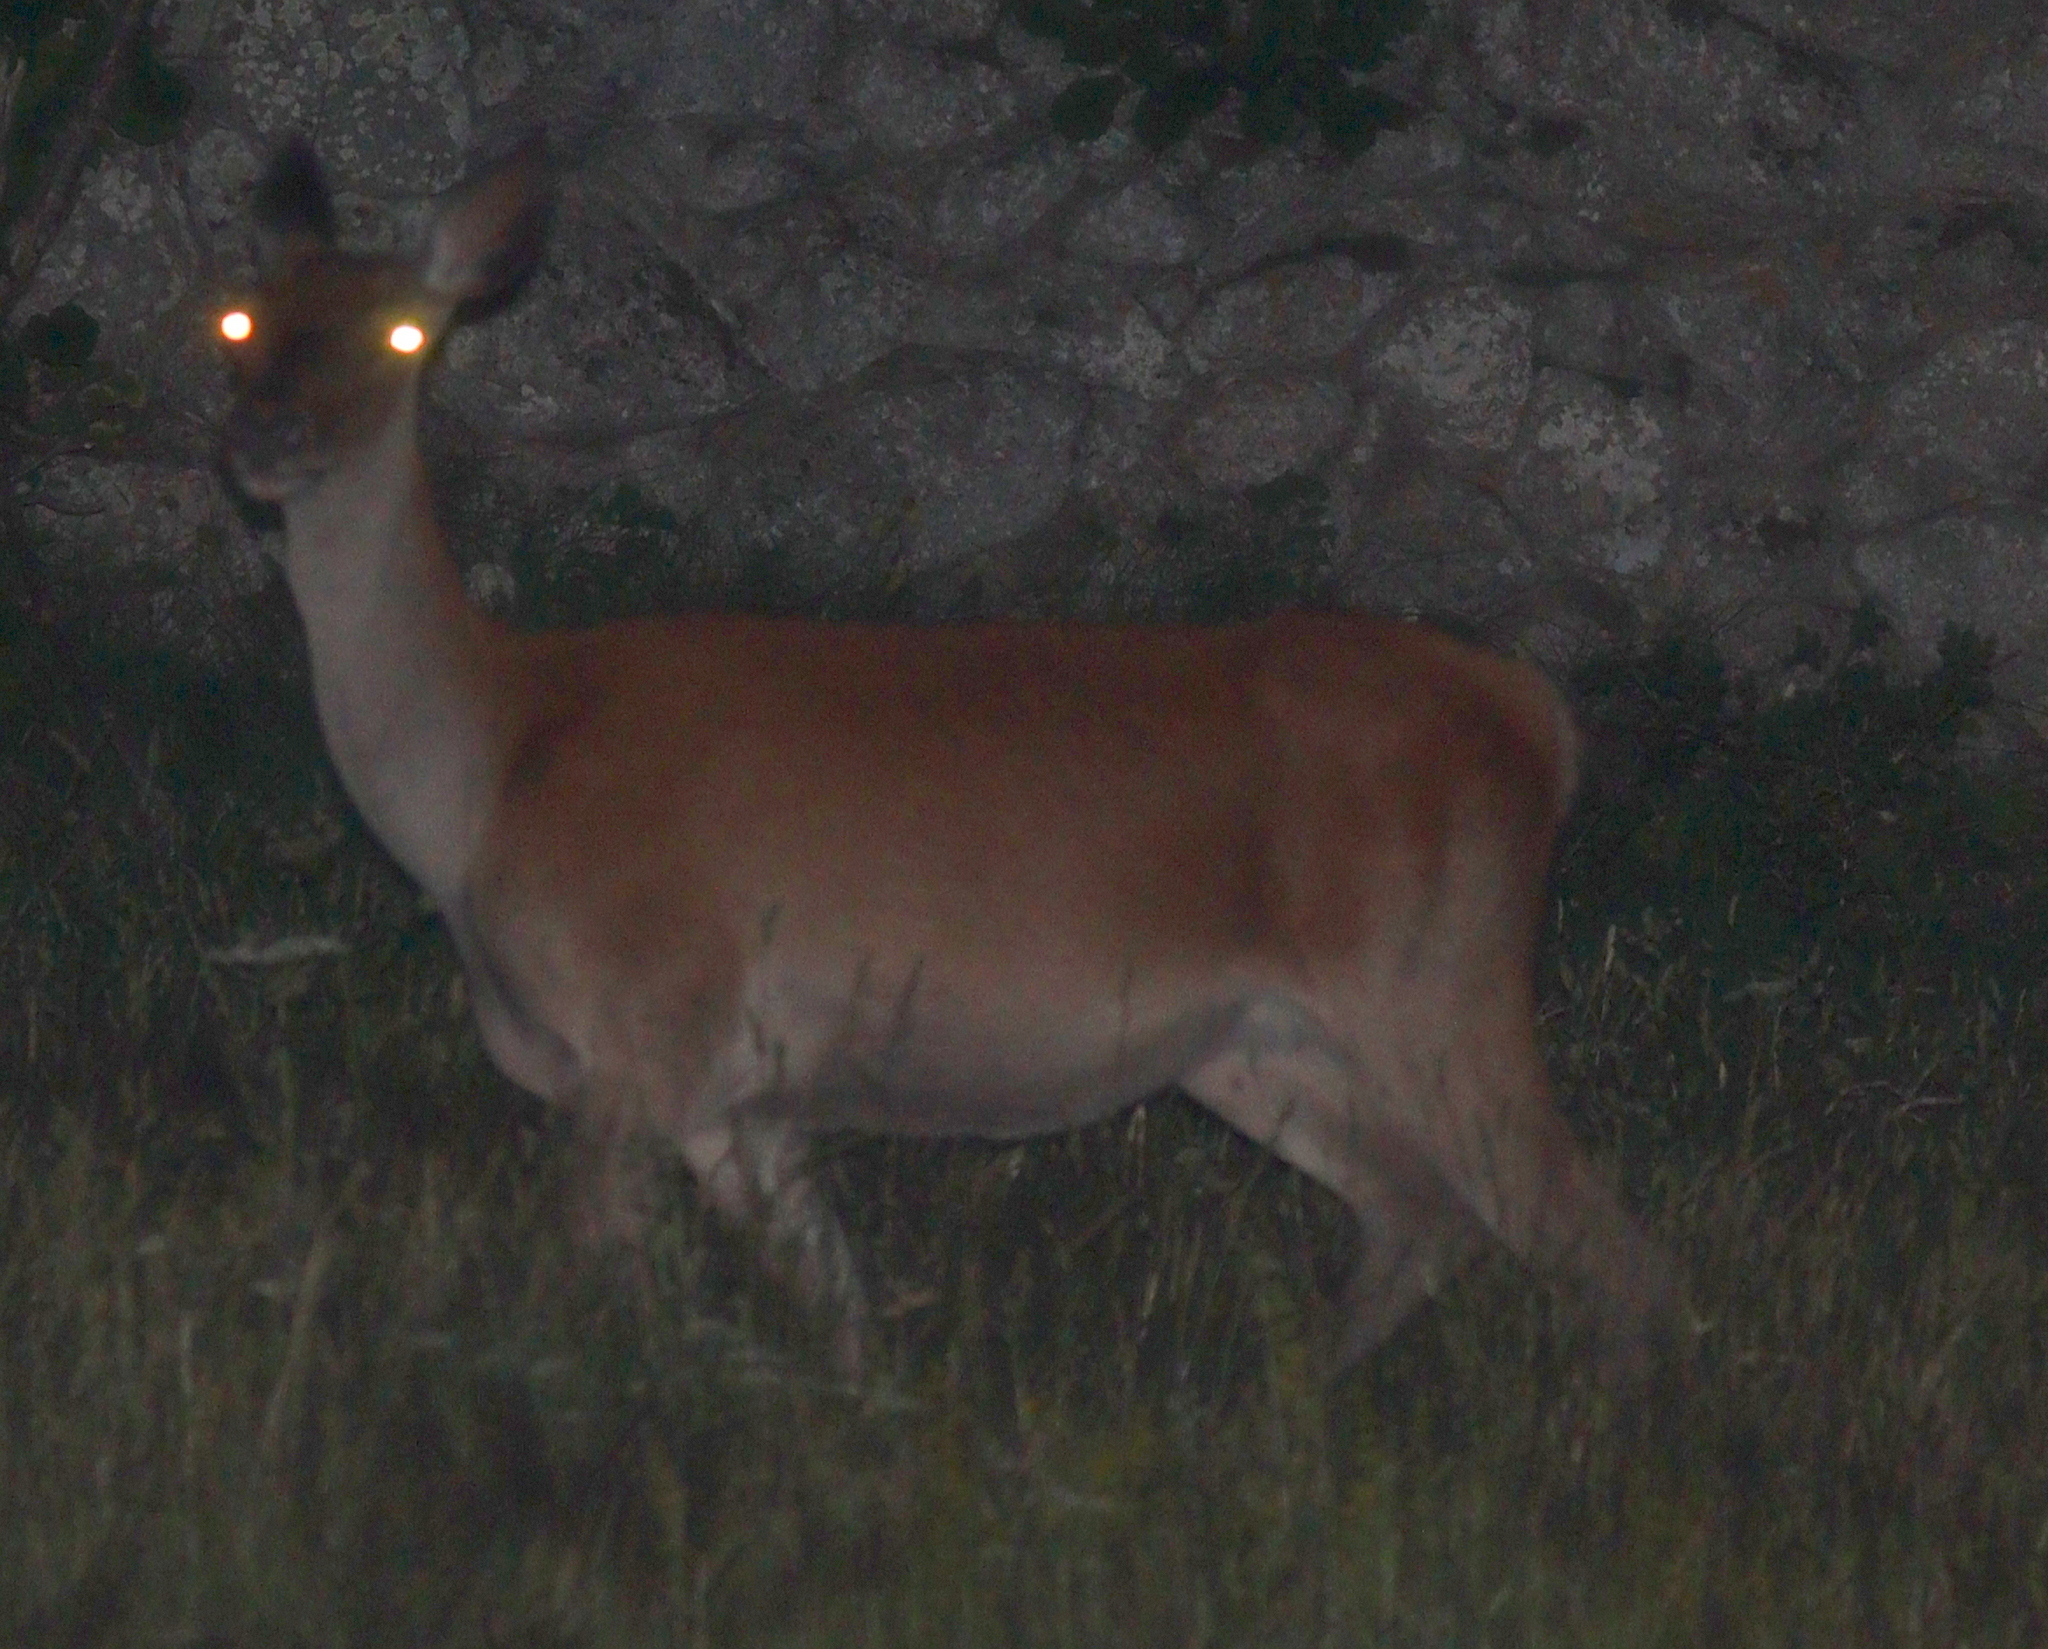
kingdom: Animalia
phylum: Chordata
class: Mammalia
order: Artiodactyla
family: Cervidae
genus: Cervus
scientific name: Cervus elaphus
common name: Red deer
